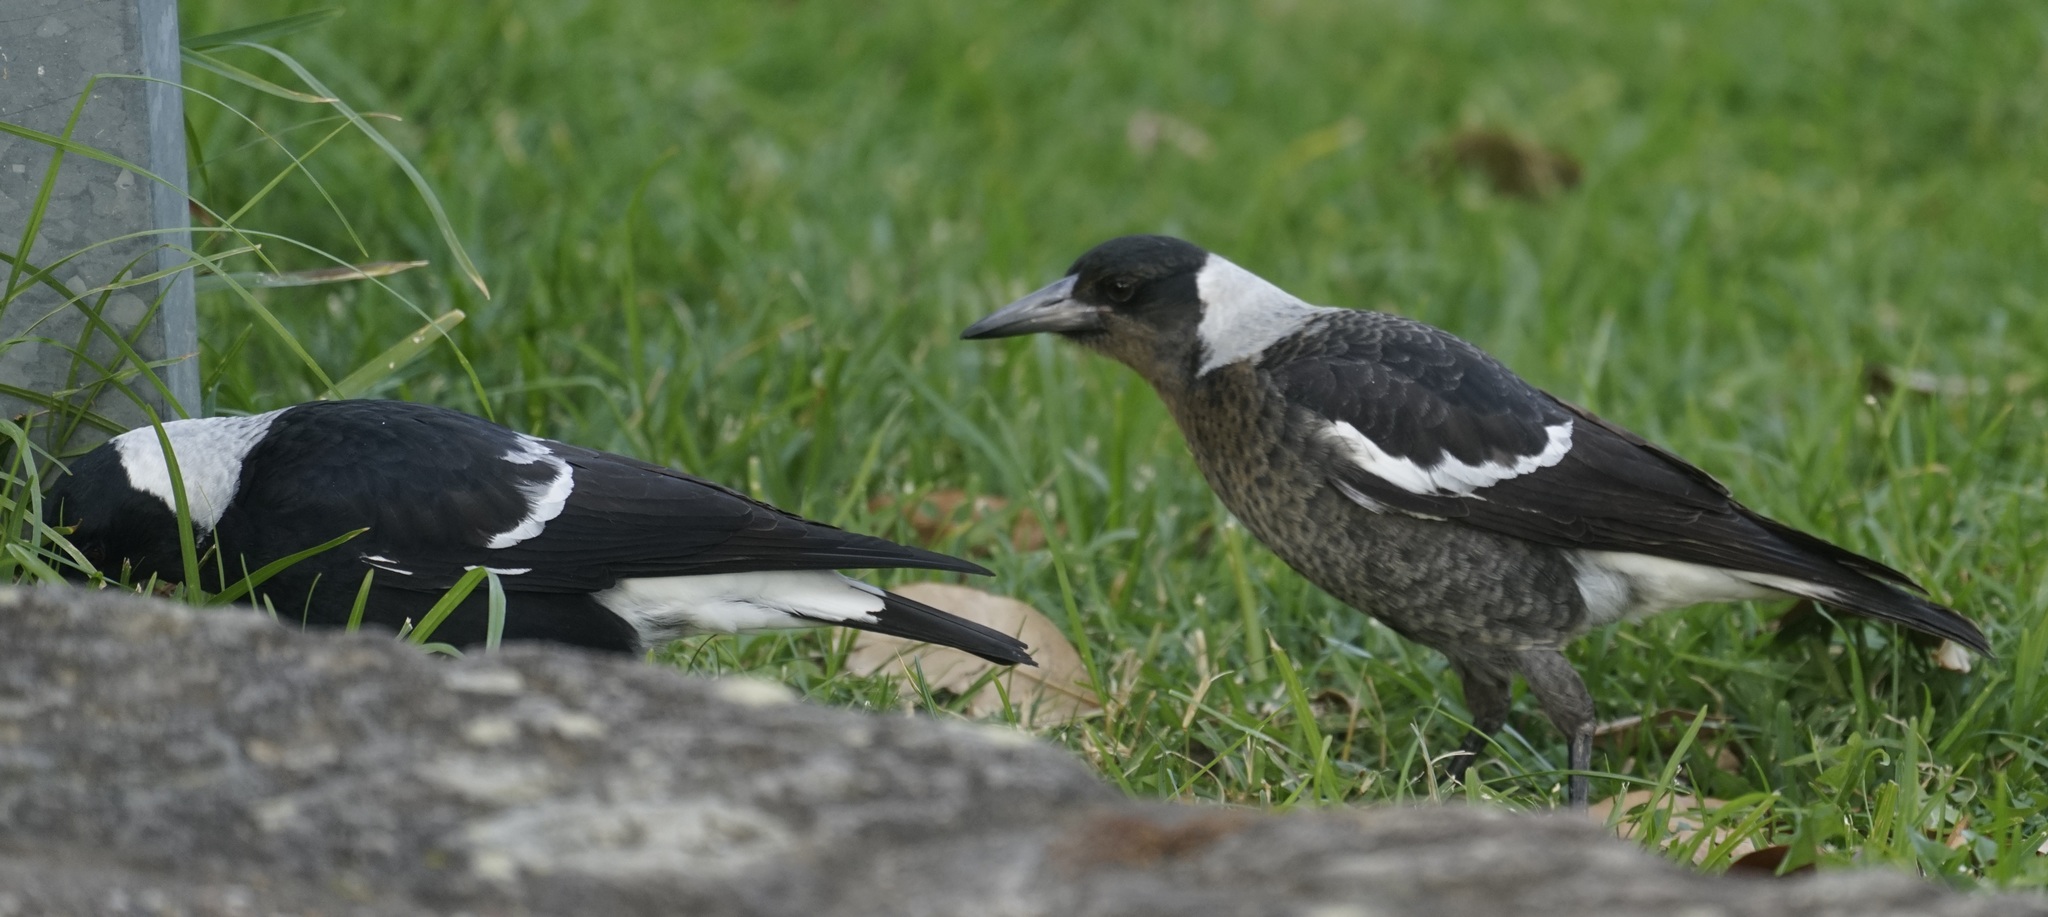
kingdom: Animalia
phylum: Chordata
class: Aves
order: Passeriformes
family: Cracticidae
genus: Gymnorhina
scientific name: Gymnorhina tibicen
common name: Australian magpie
